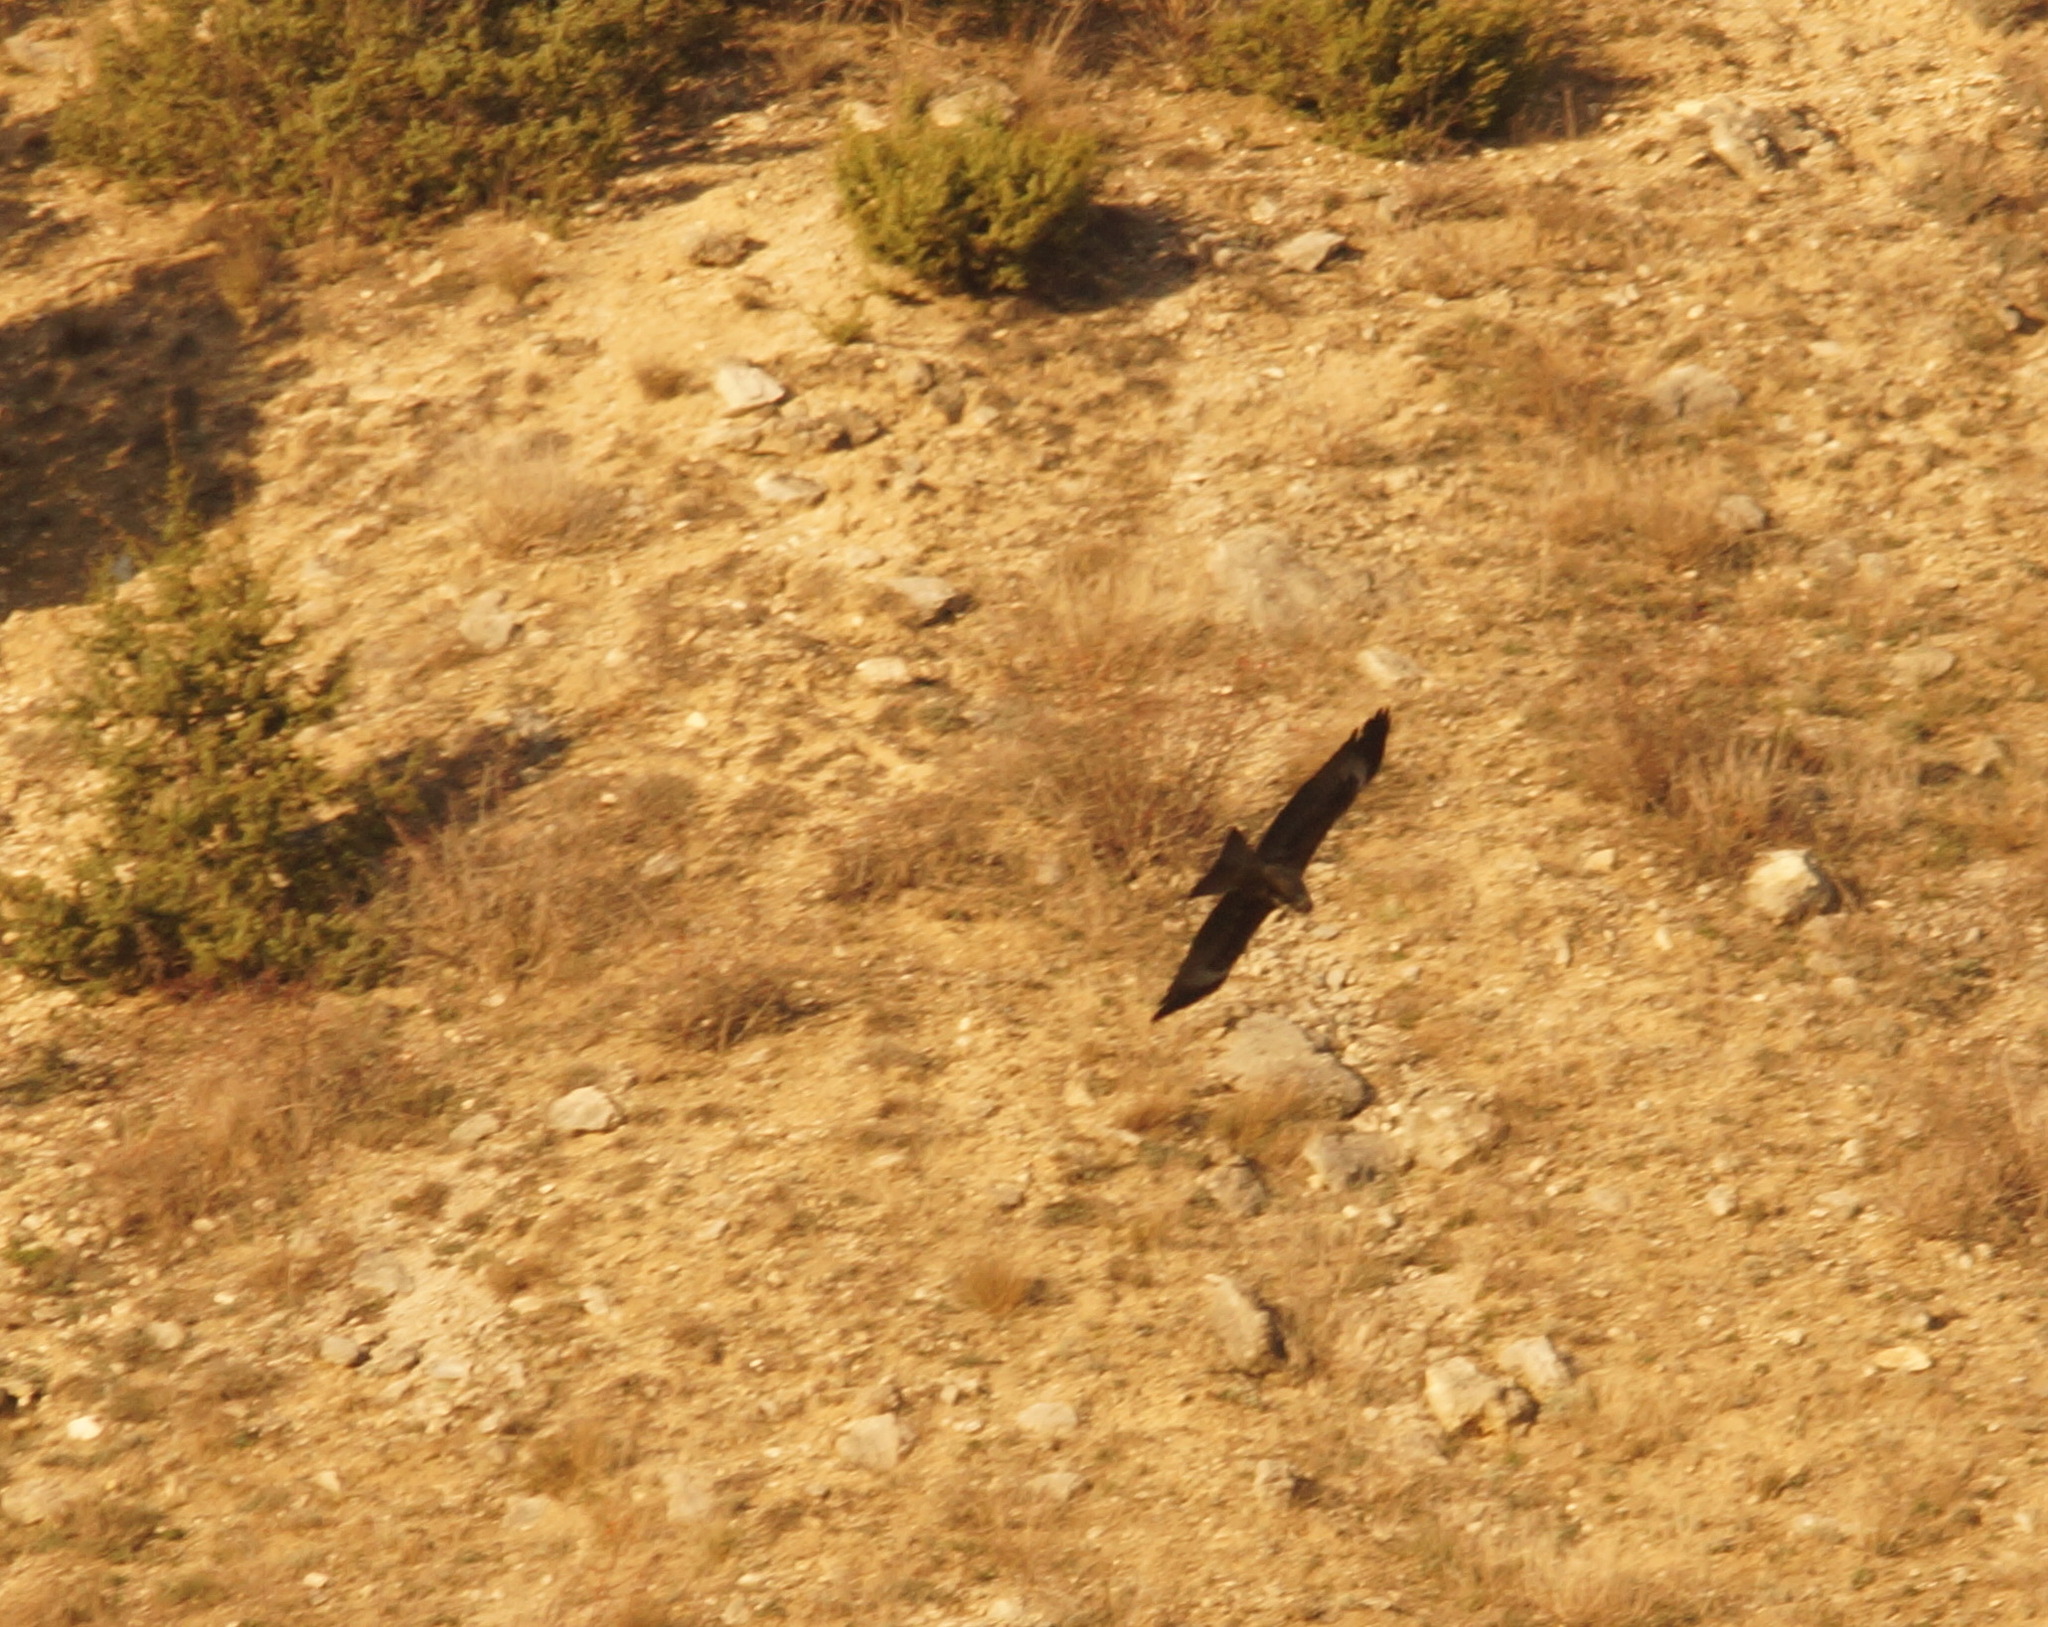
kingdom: Animalia
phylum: Chordata
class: Aves
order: Accipitriformes
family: Accipitridae
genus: Milvus
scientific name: Milvus migrans
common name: Black kite
